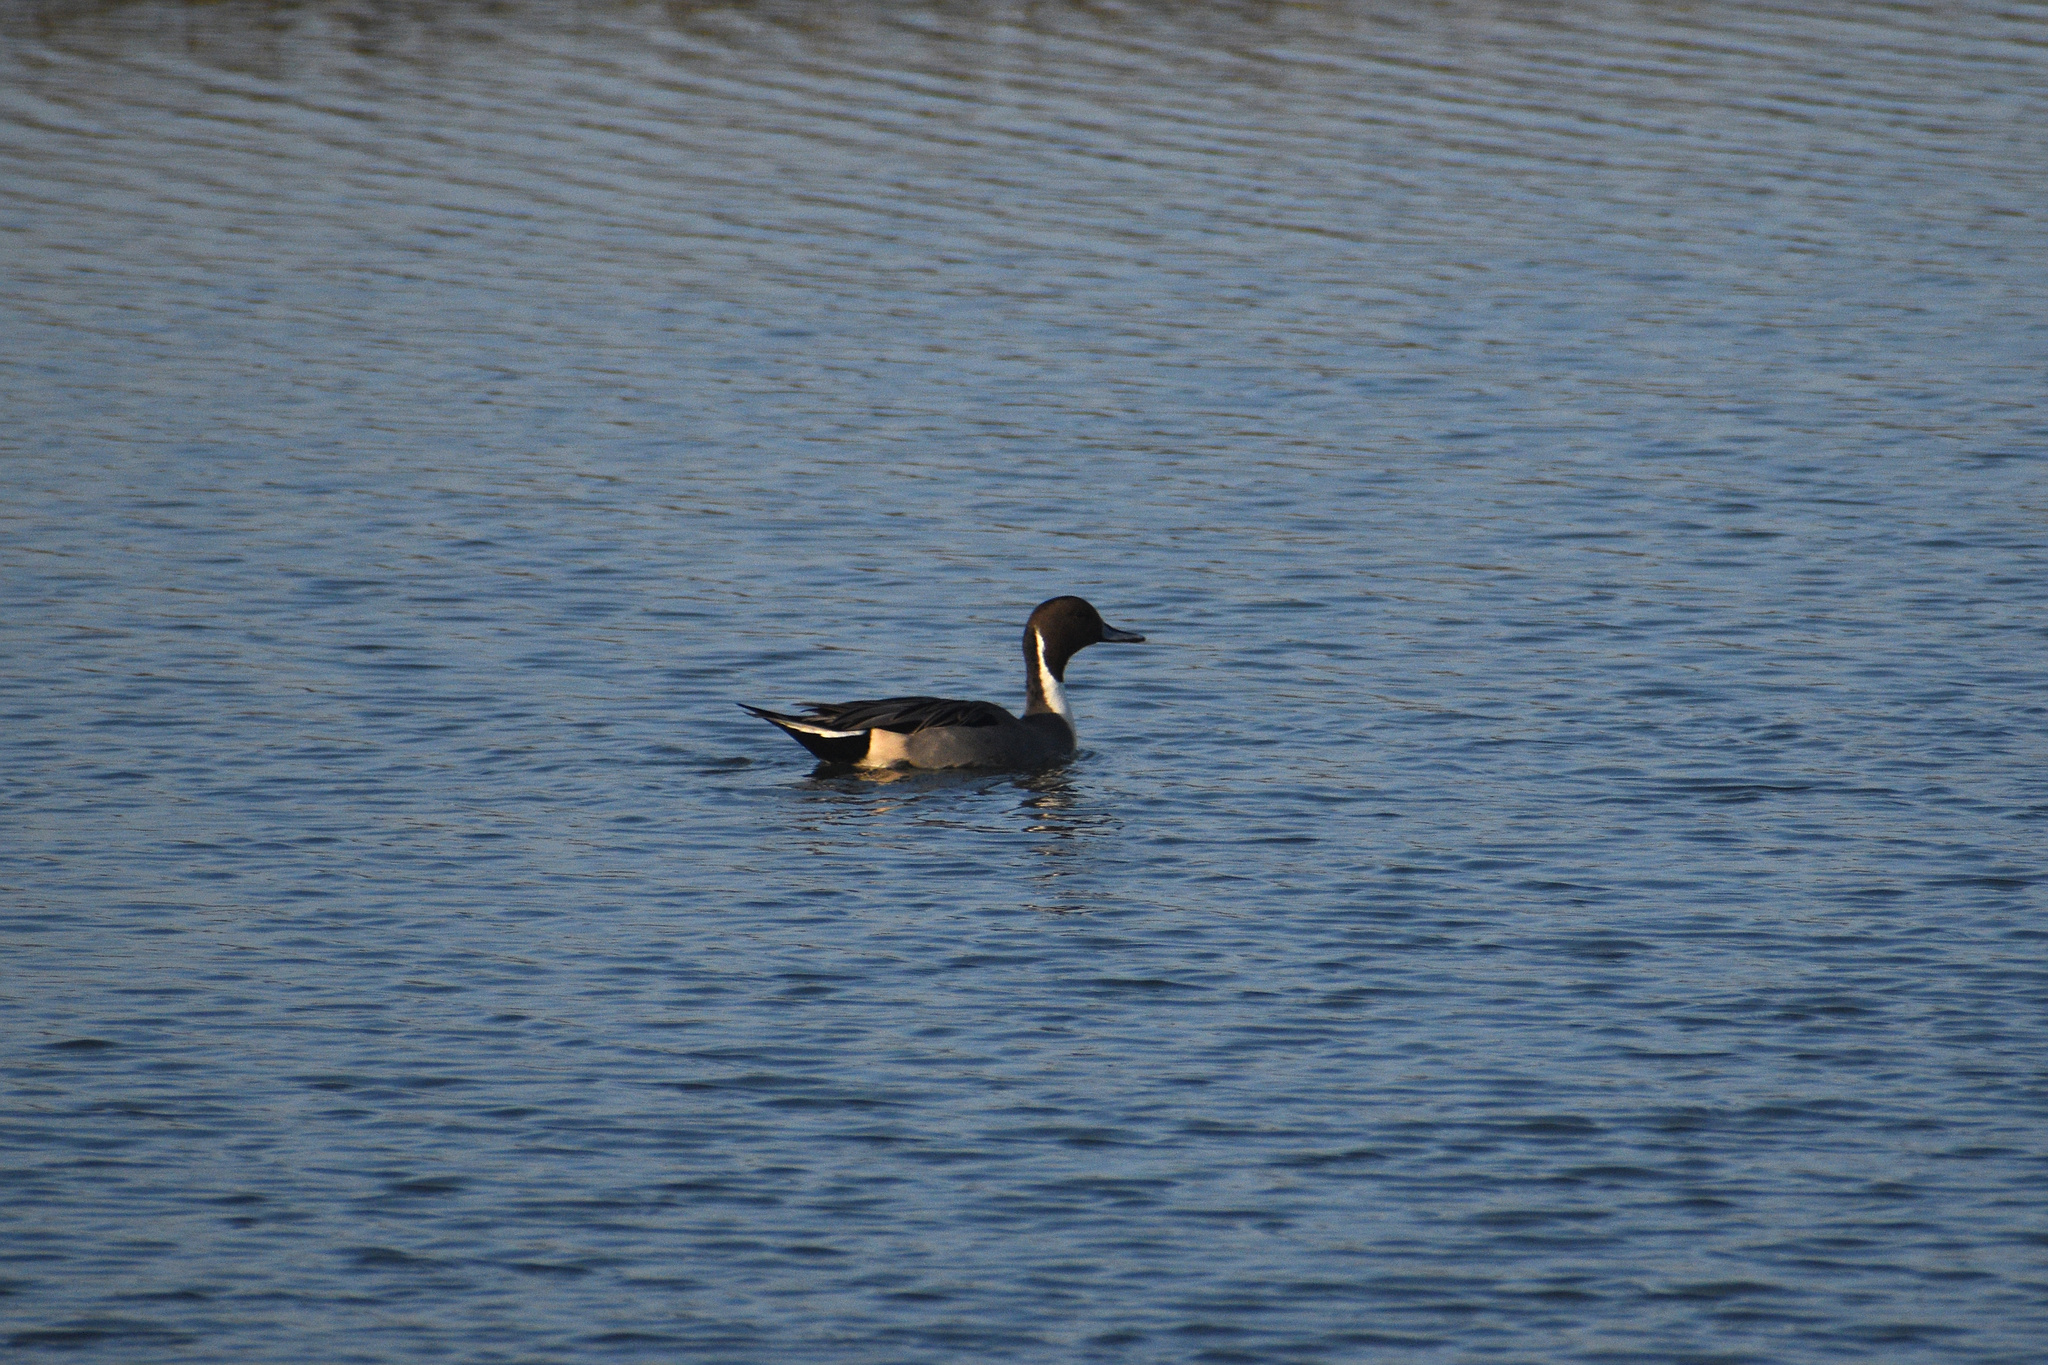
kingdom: Animalia
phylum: Chordata
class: Aves
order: Anseriformes
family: Anatidae
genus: Anas
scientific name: Anas acuta
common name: Northern pintail
